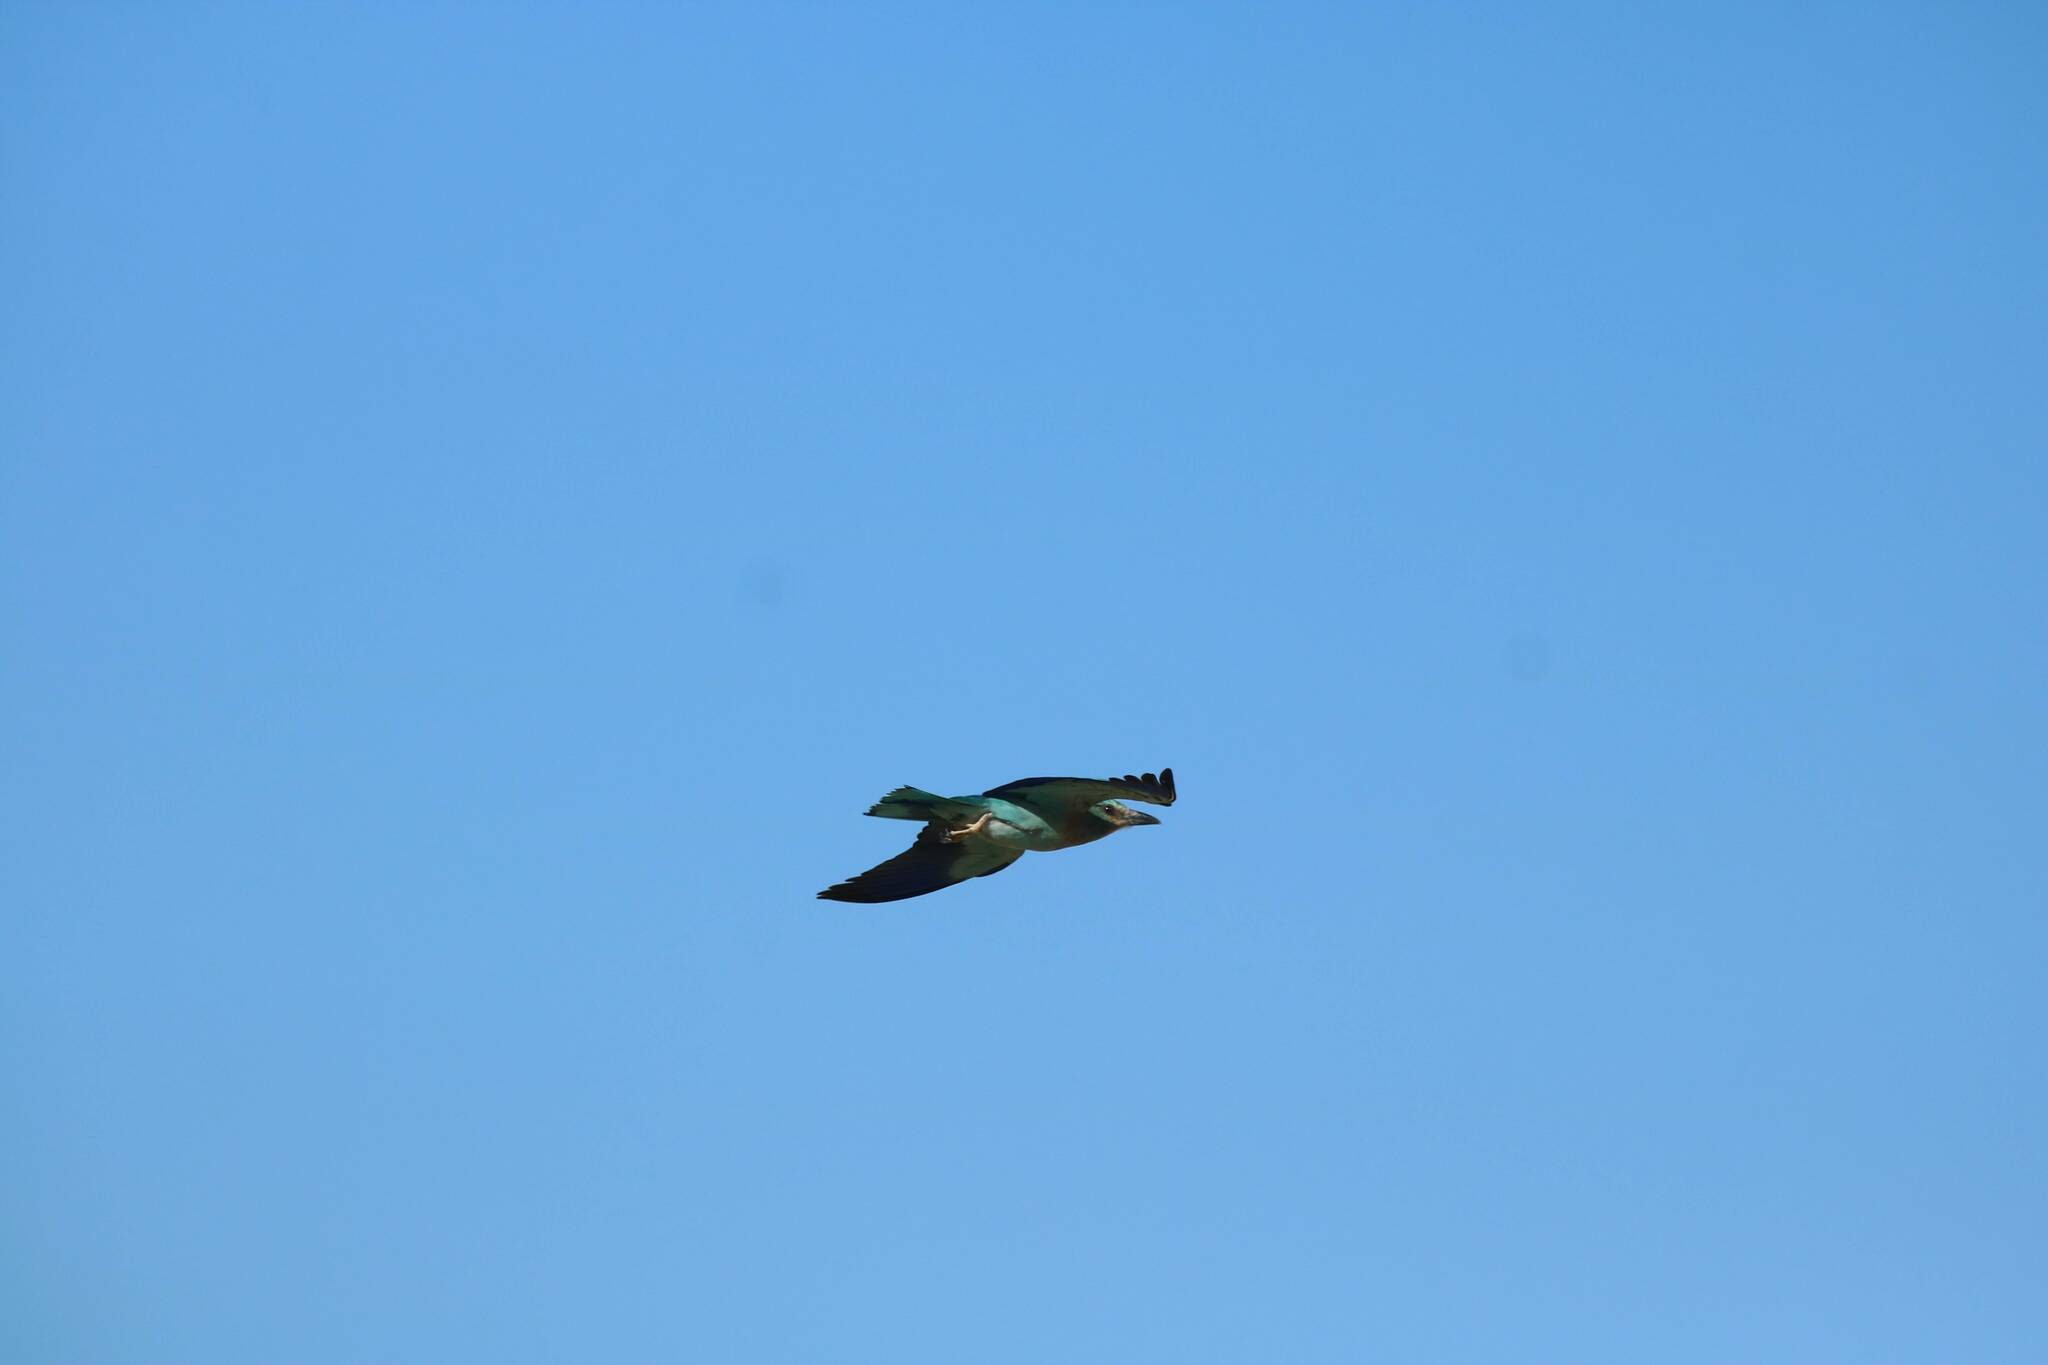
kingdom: Animalia
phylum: Chordata
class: Aves
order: Coraciiformes
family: Coraciidae
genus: Coracias
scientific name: Coracias garrulus
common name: European roller
